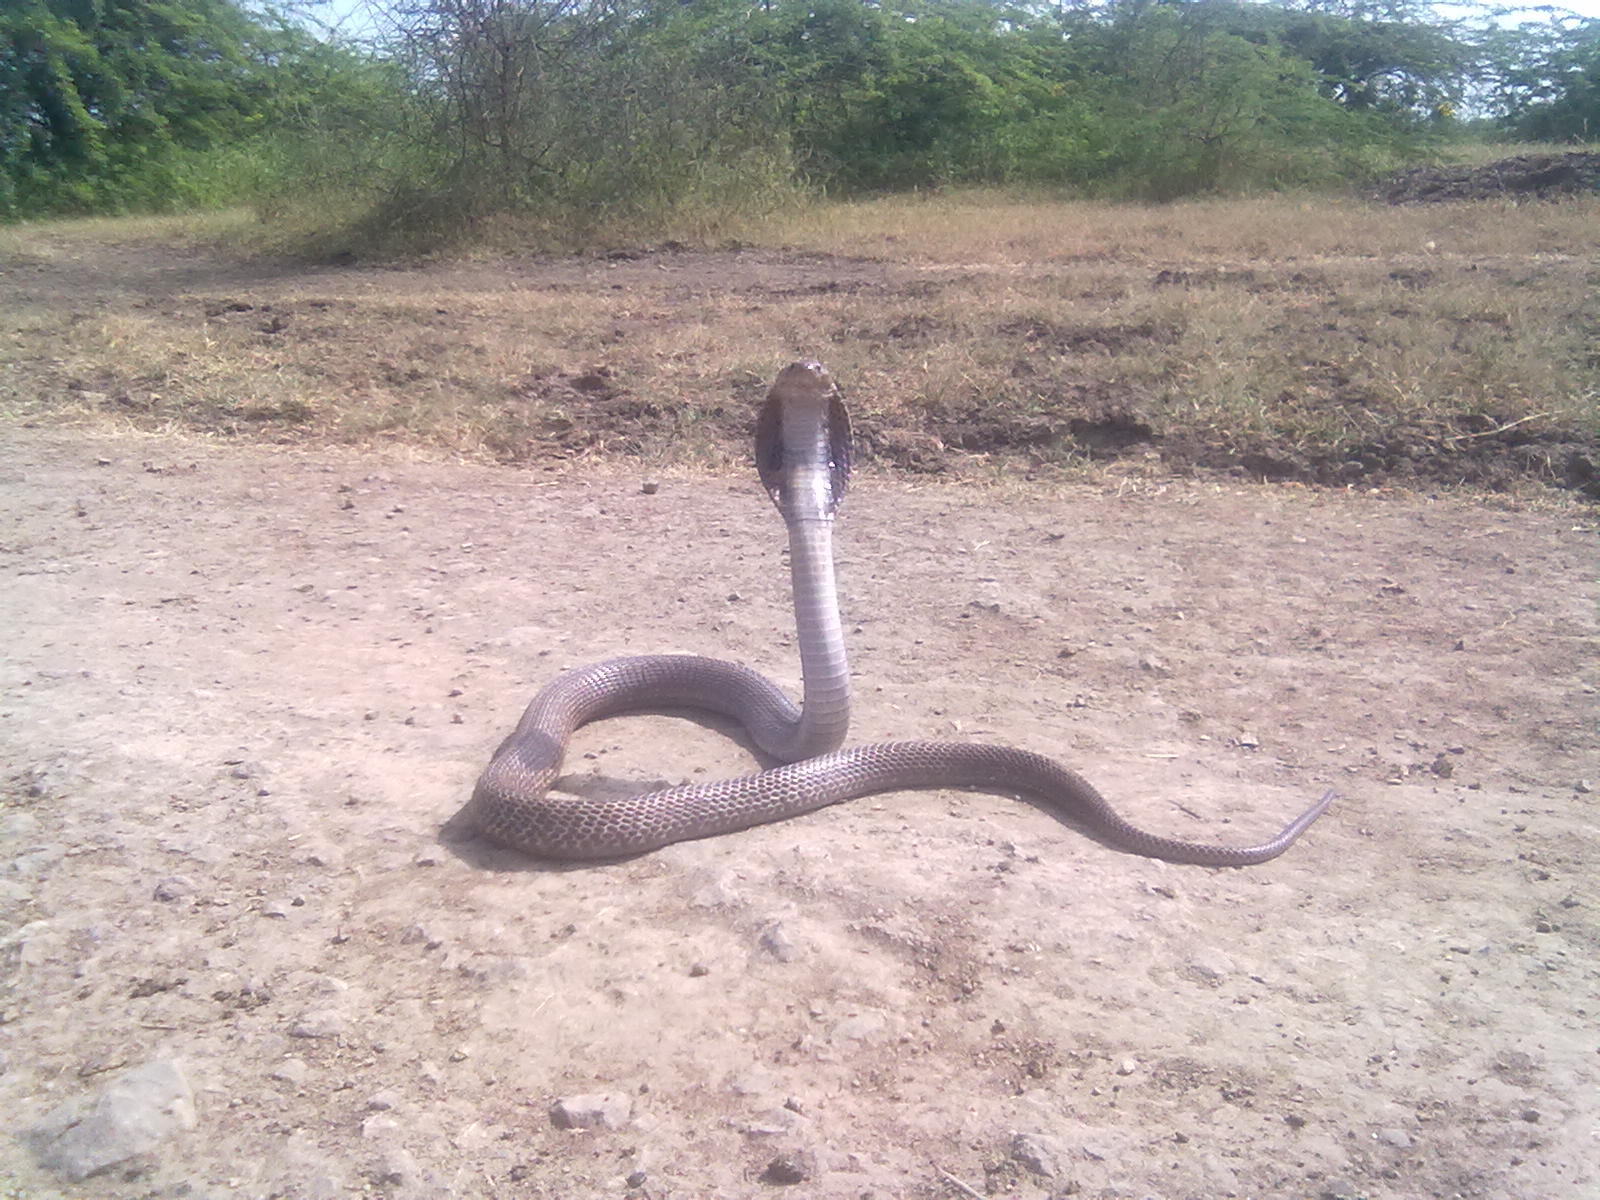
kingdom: Animalia
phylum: Chordata
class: Squamata
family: Elapidae
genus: Naja
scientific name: Naja naja
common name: Indian cobra
